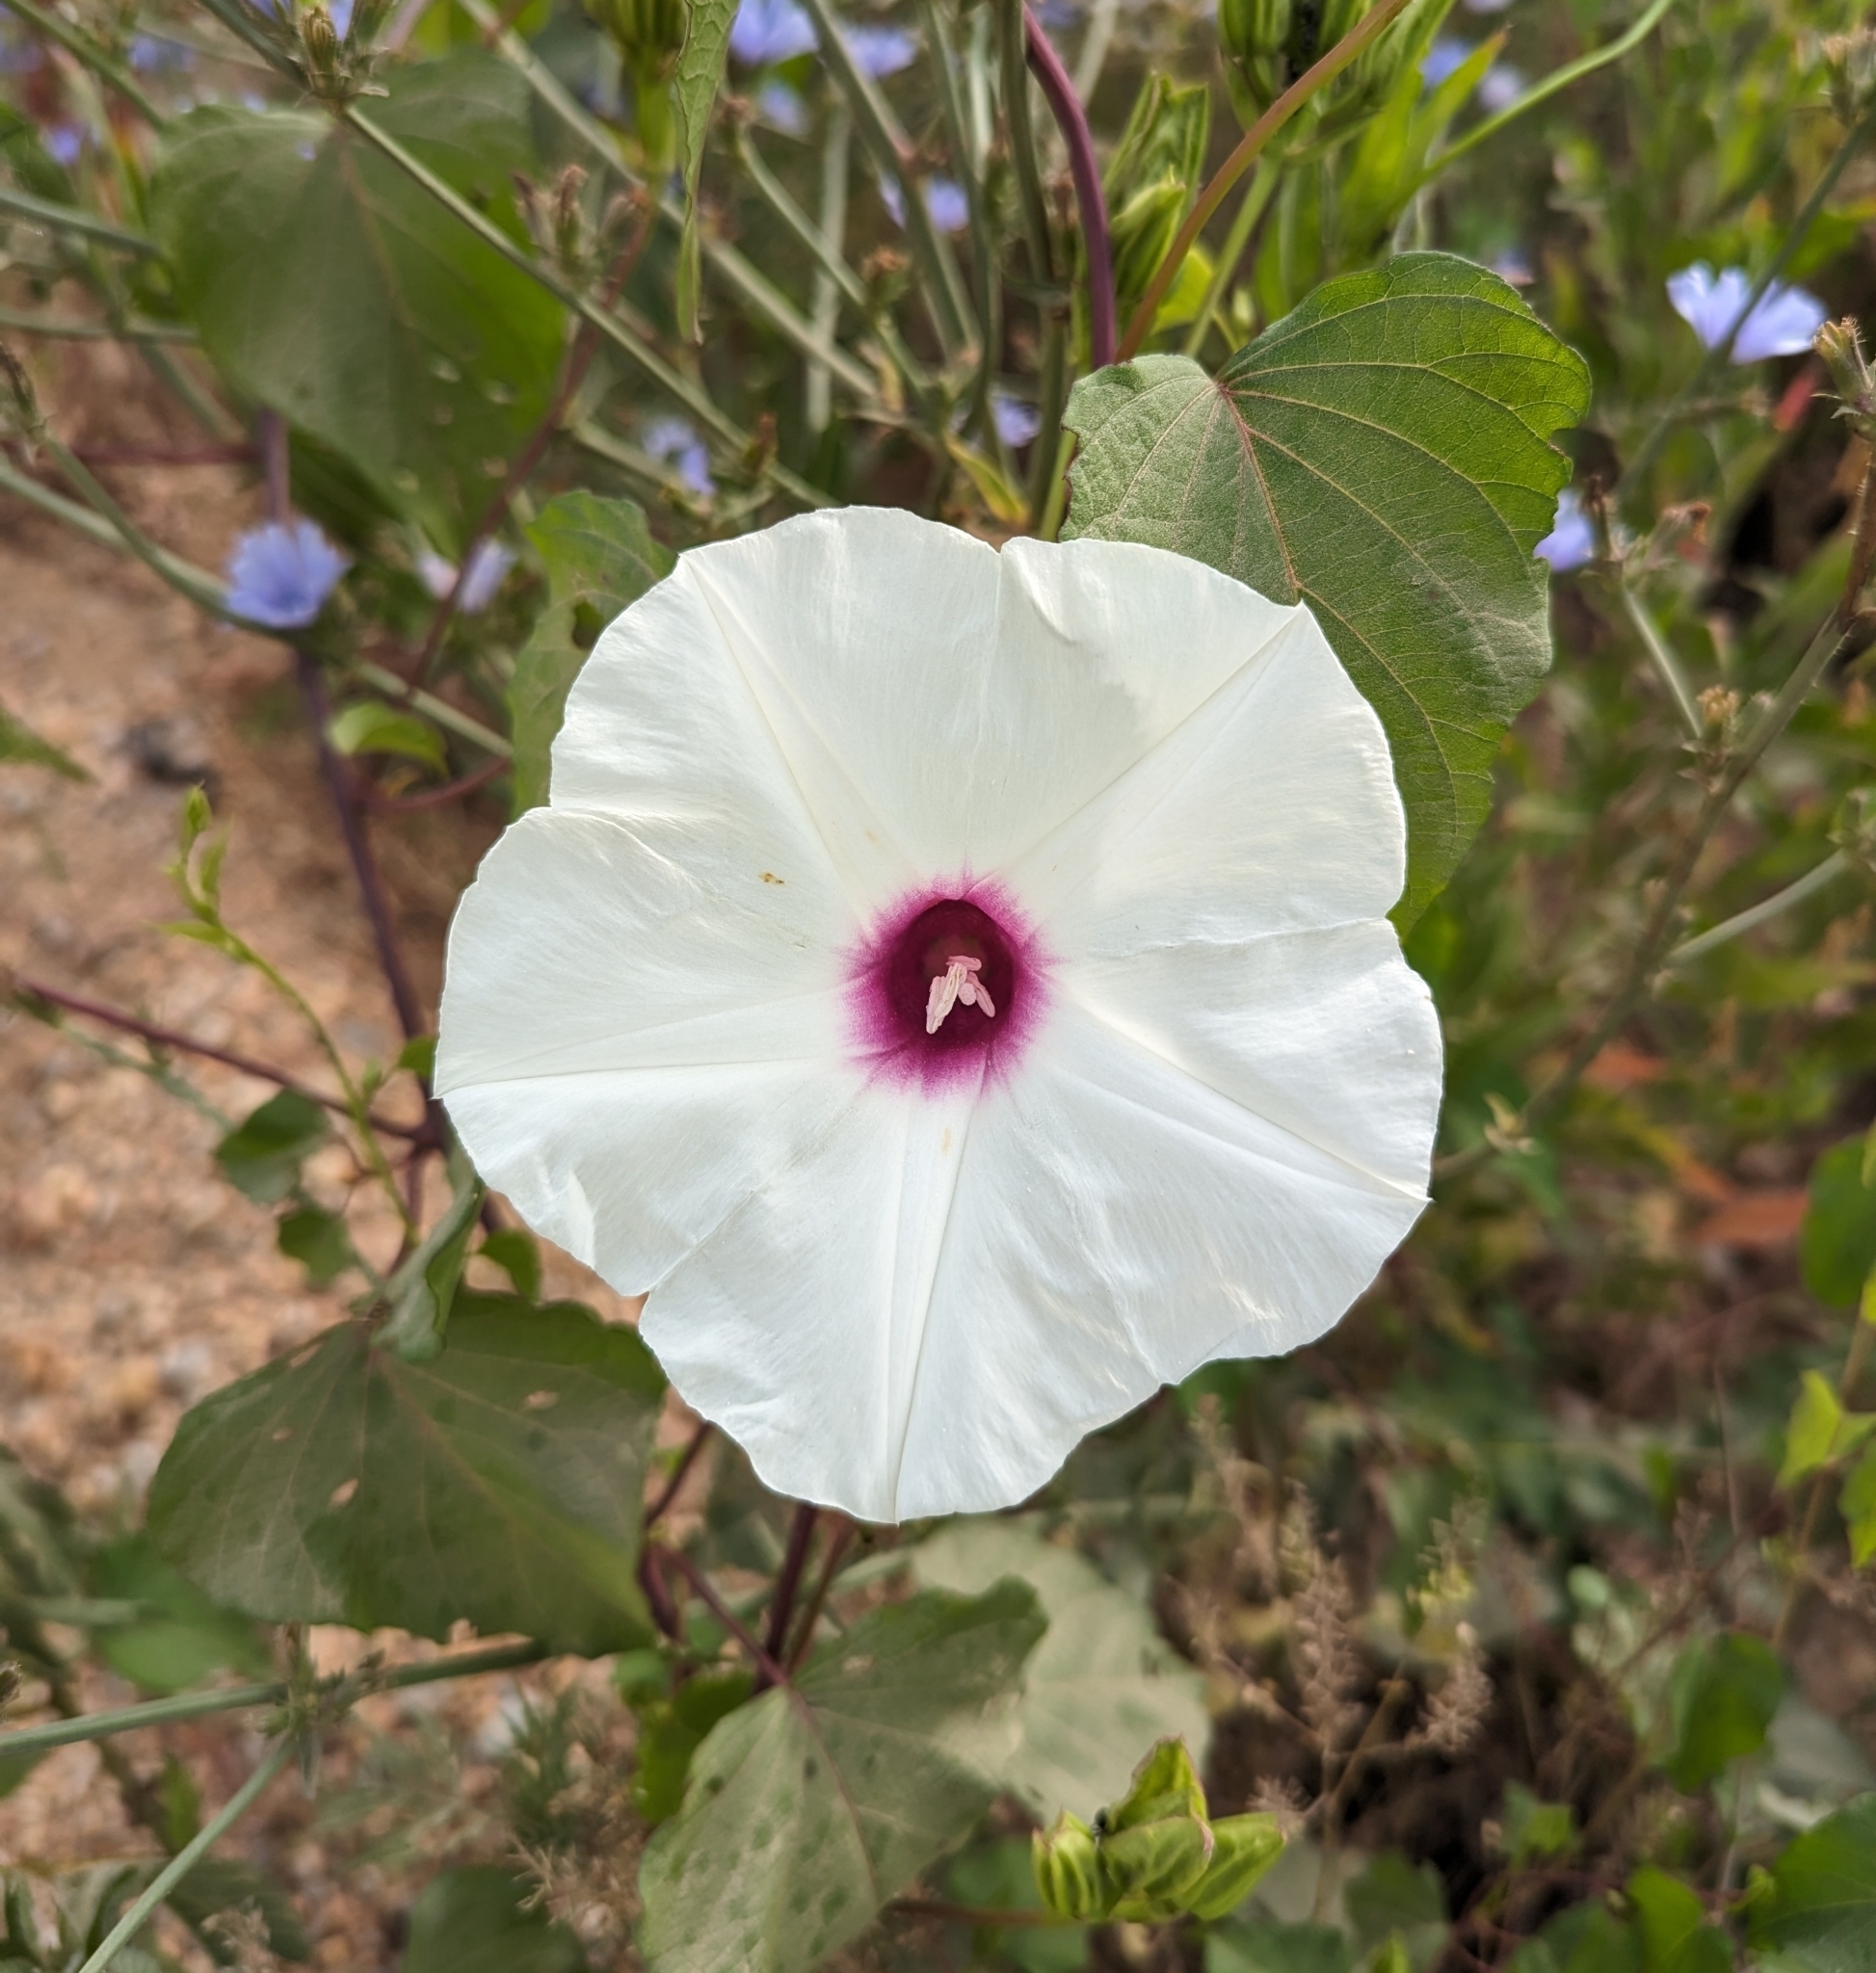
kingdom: Plantae
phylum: Tracheophyta
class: Magnoliopsida
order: Solanales
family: Convolvulaceae
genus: Ipomoea
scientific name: Ipomoea pandurata
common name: Man-of-the-earth
